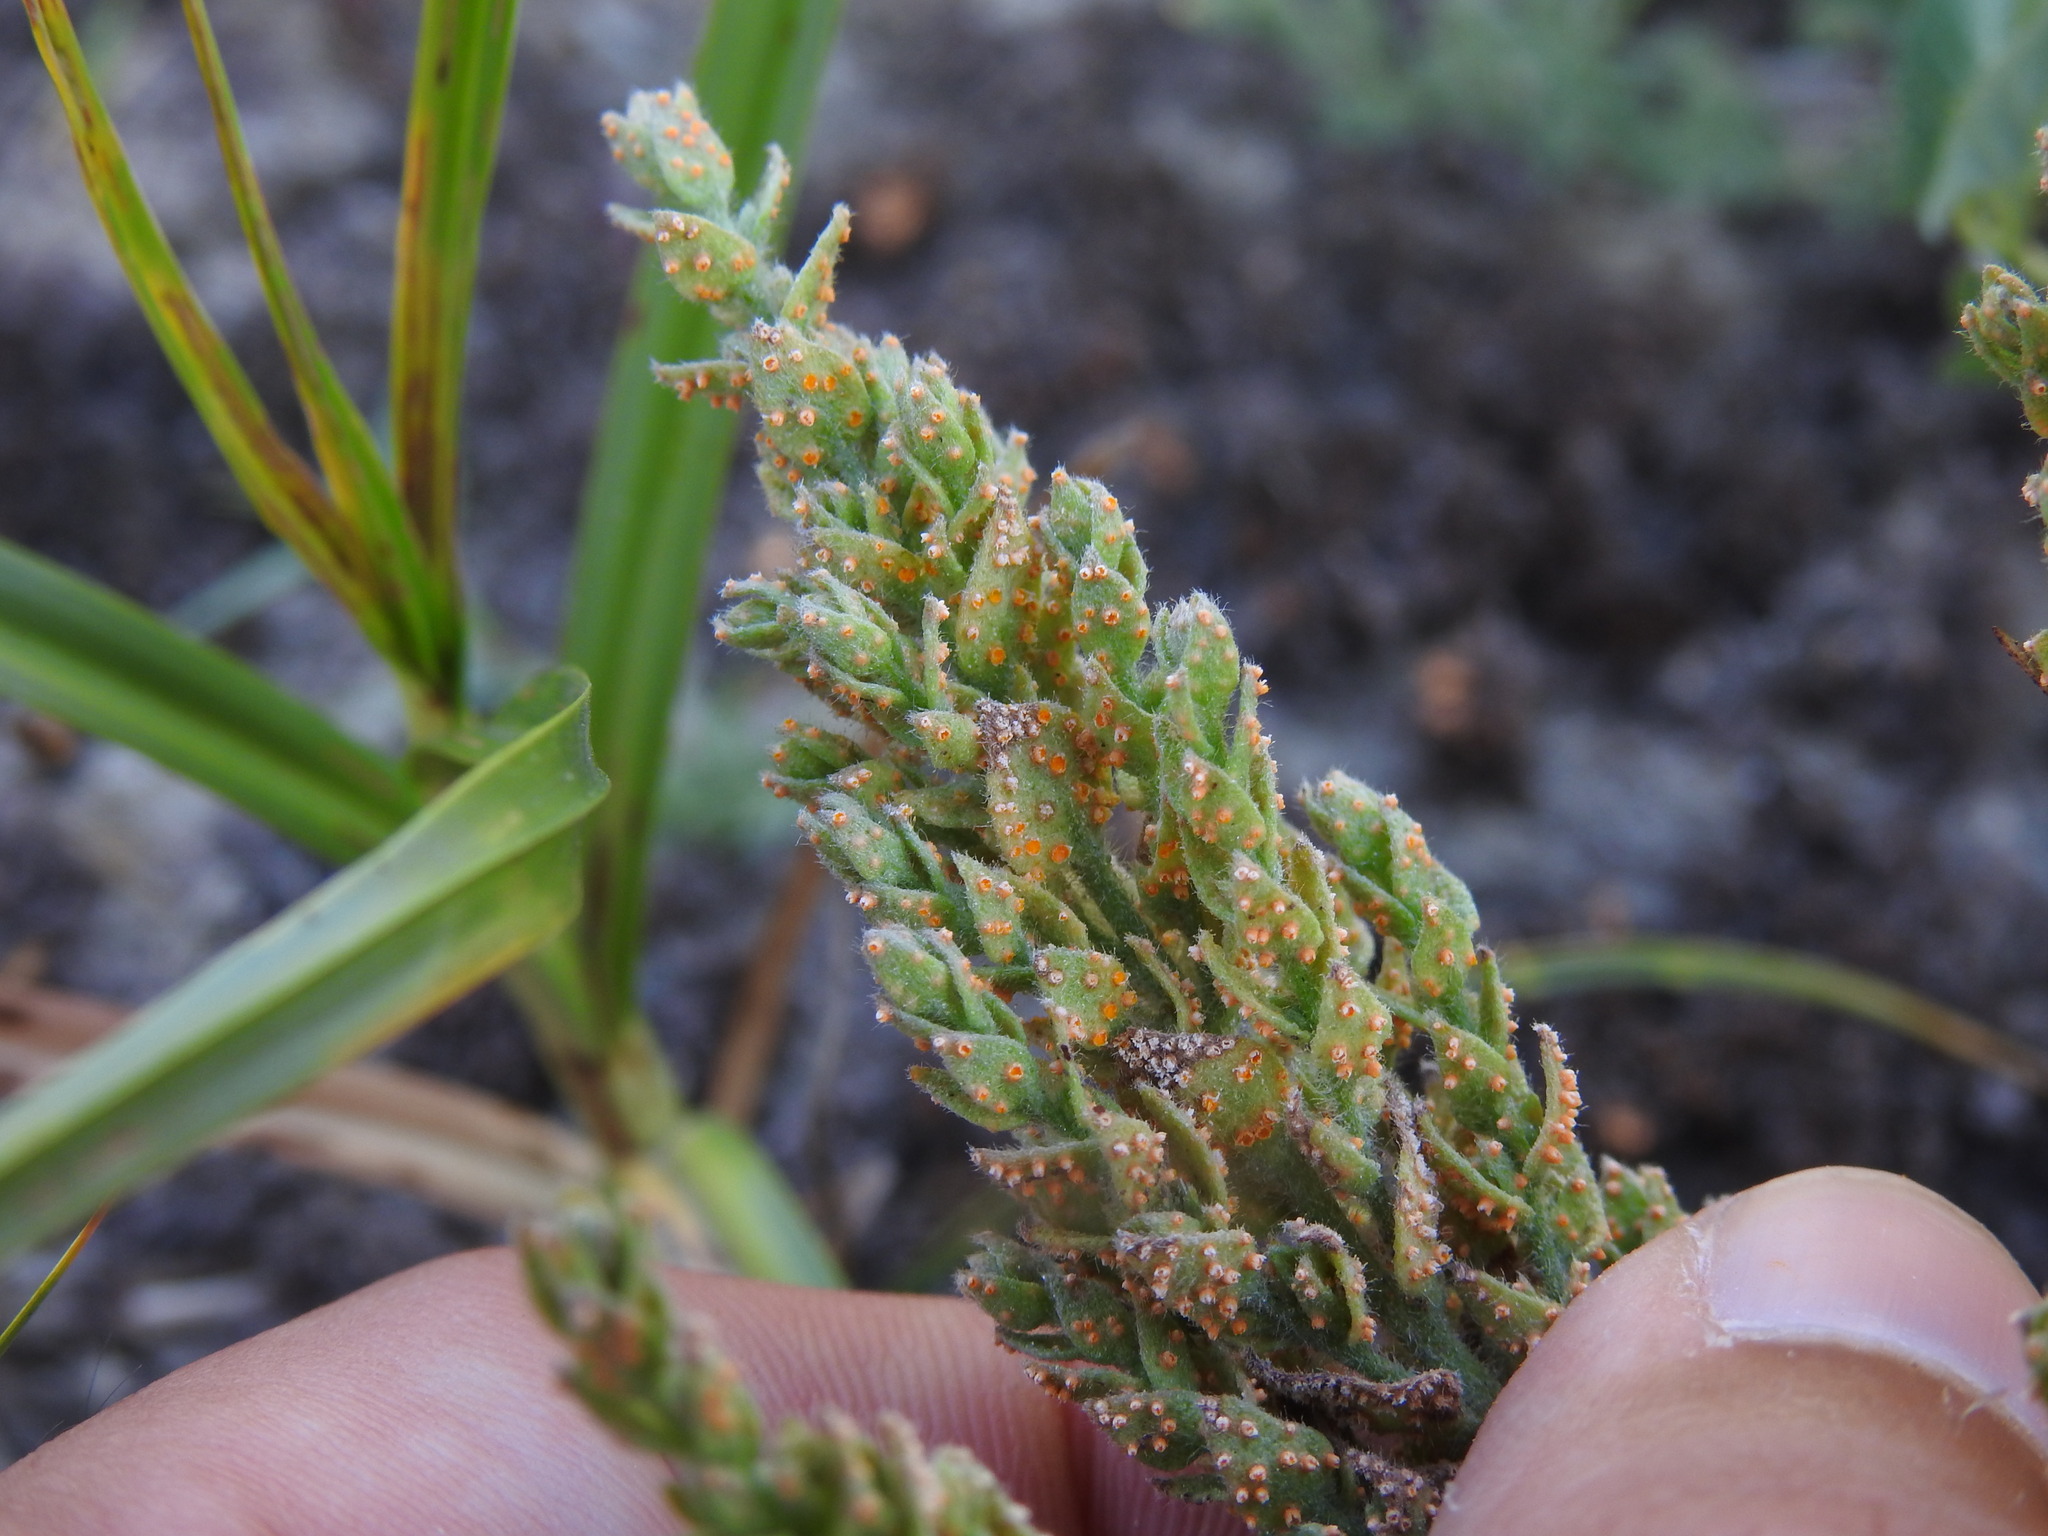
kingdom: Fungi
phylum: Basidiomycota
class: Pucciniomycetes
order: Pucciniales
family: Pucciniaceae
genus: Puccinia
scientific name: Puccinia cressae
